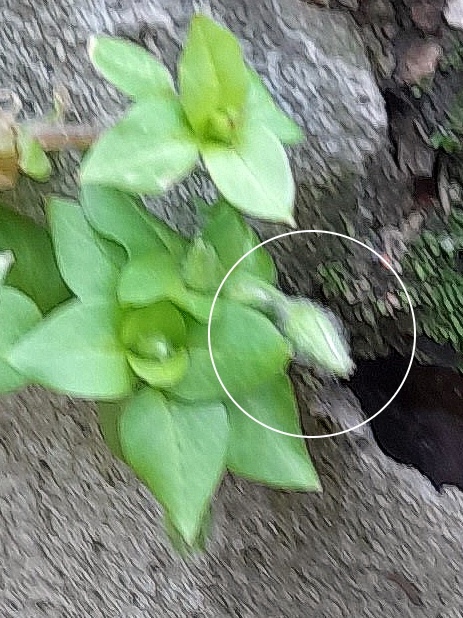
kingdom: Plantae
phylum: Tracheophyta
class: Magnoliopsida
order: Caryophyllales
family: Caryophyllaceae
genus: Stellaria
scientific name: Stellaria media
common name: Common chickweed
